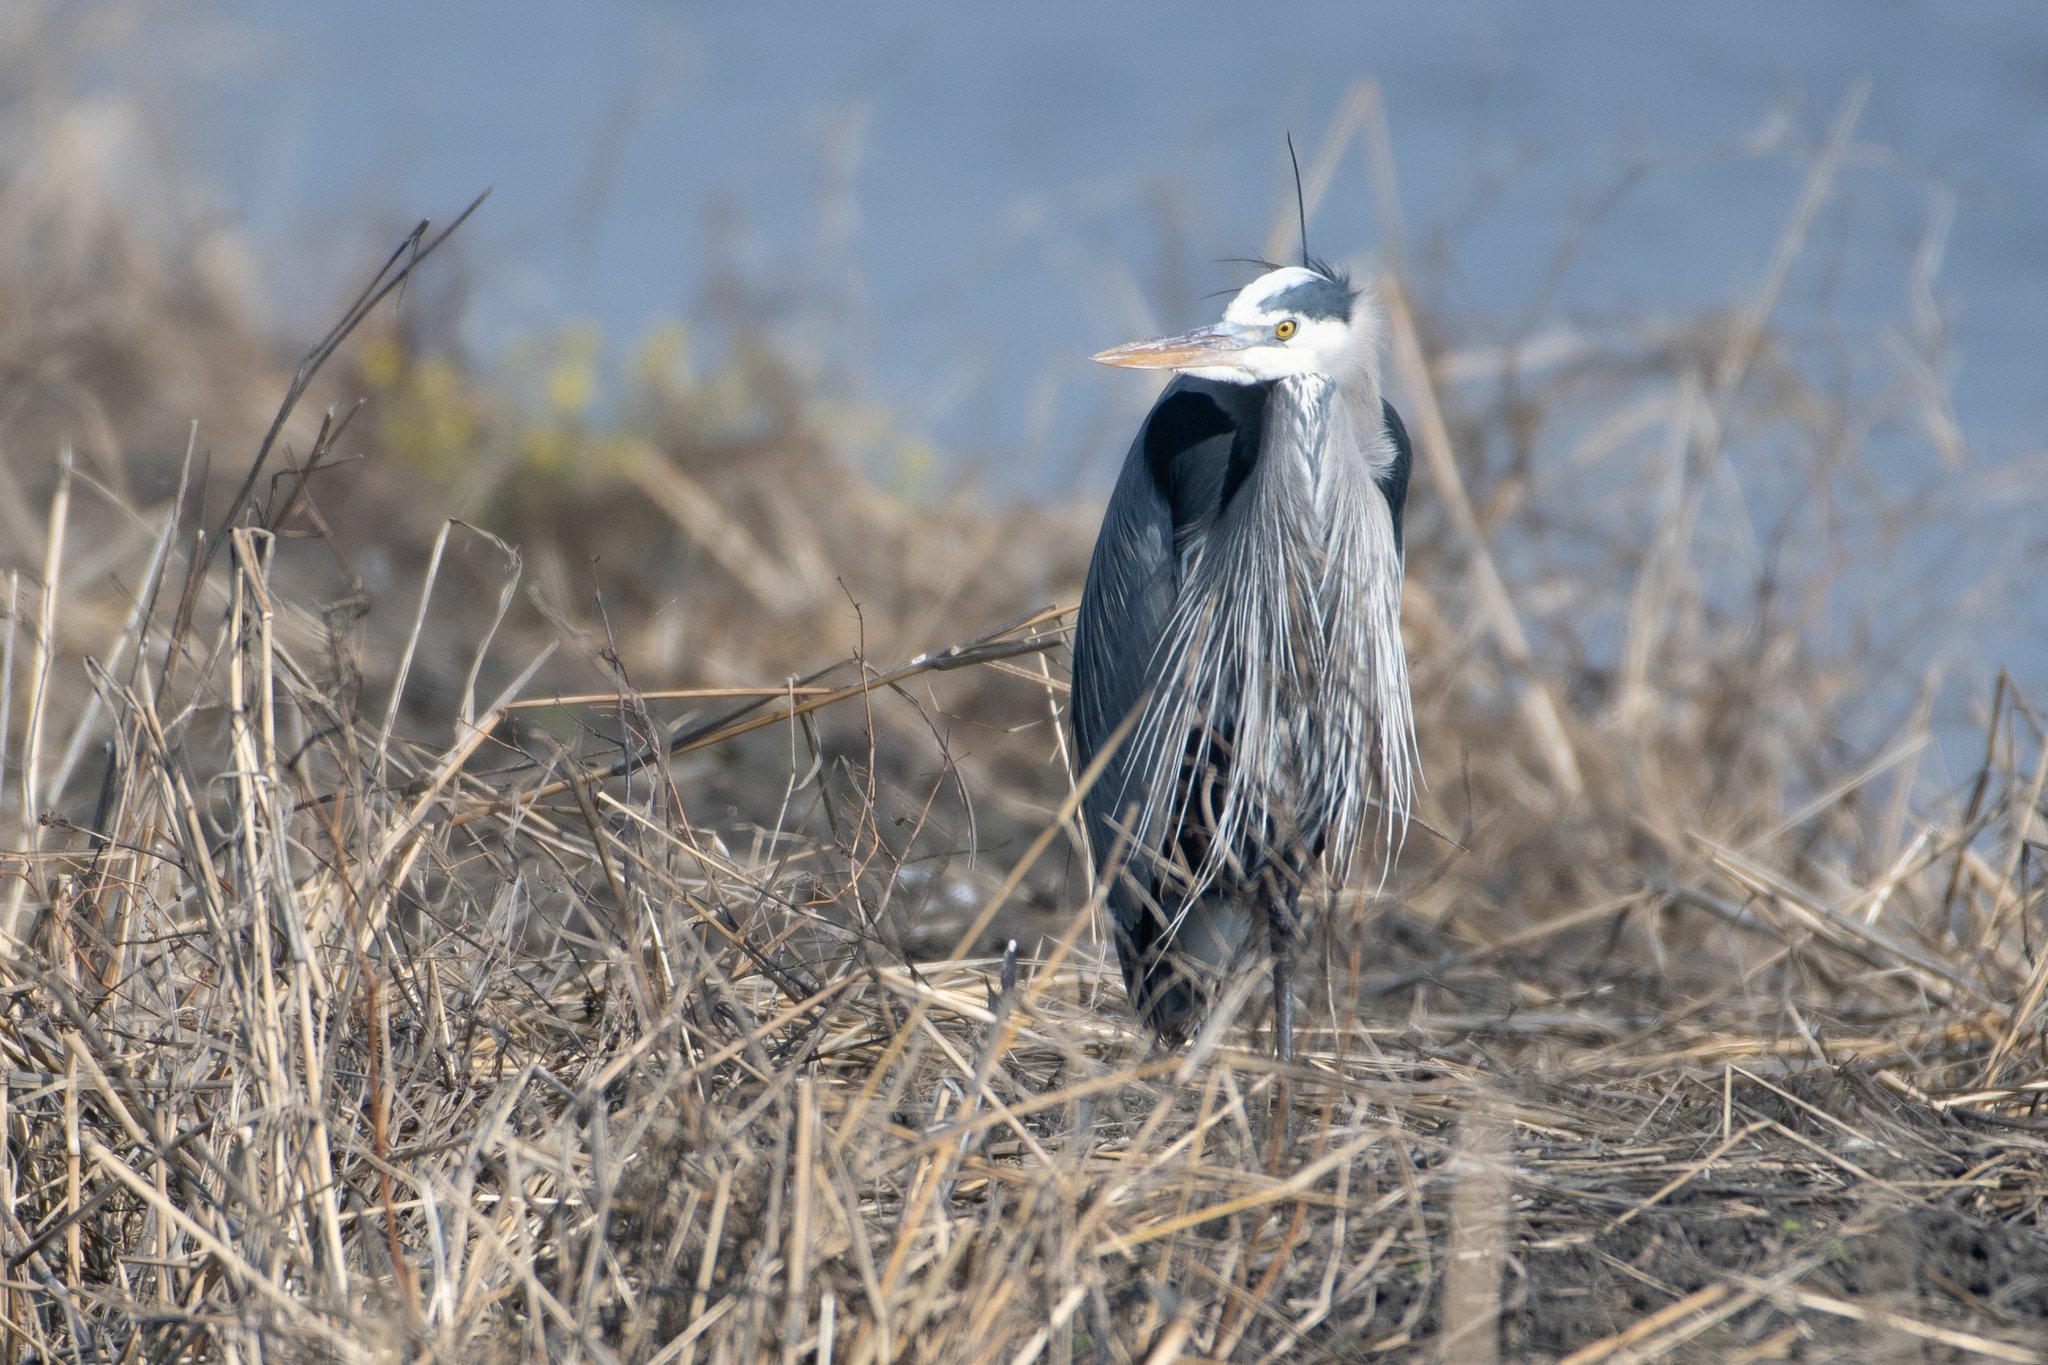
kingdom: Animalia
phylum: Chordata
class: Aves
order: Pelecaniformes
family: Ardeidae
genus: Ardea
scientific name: Ardea herodias
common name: Great blue heron
